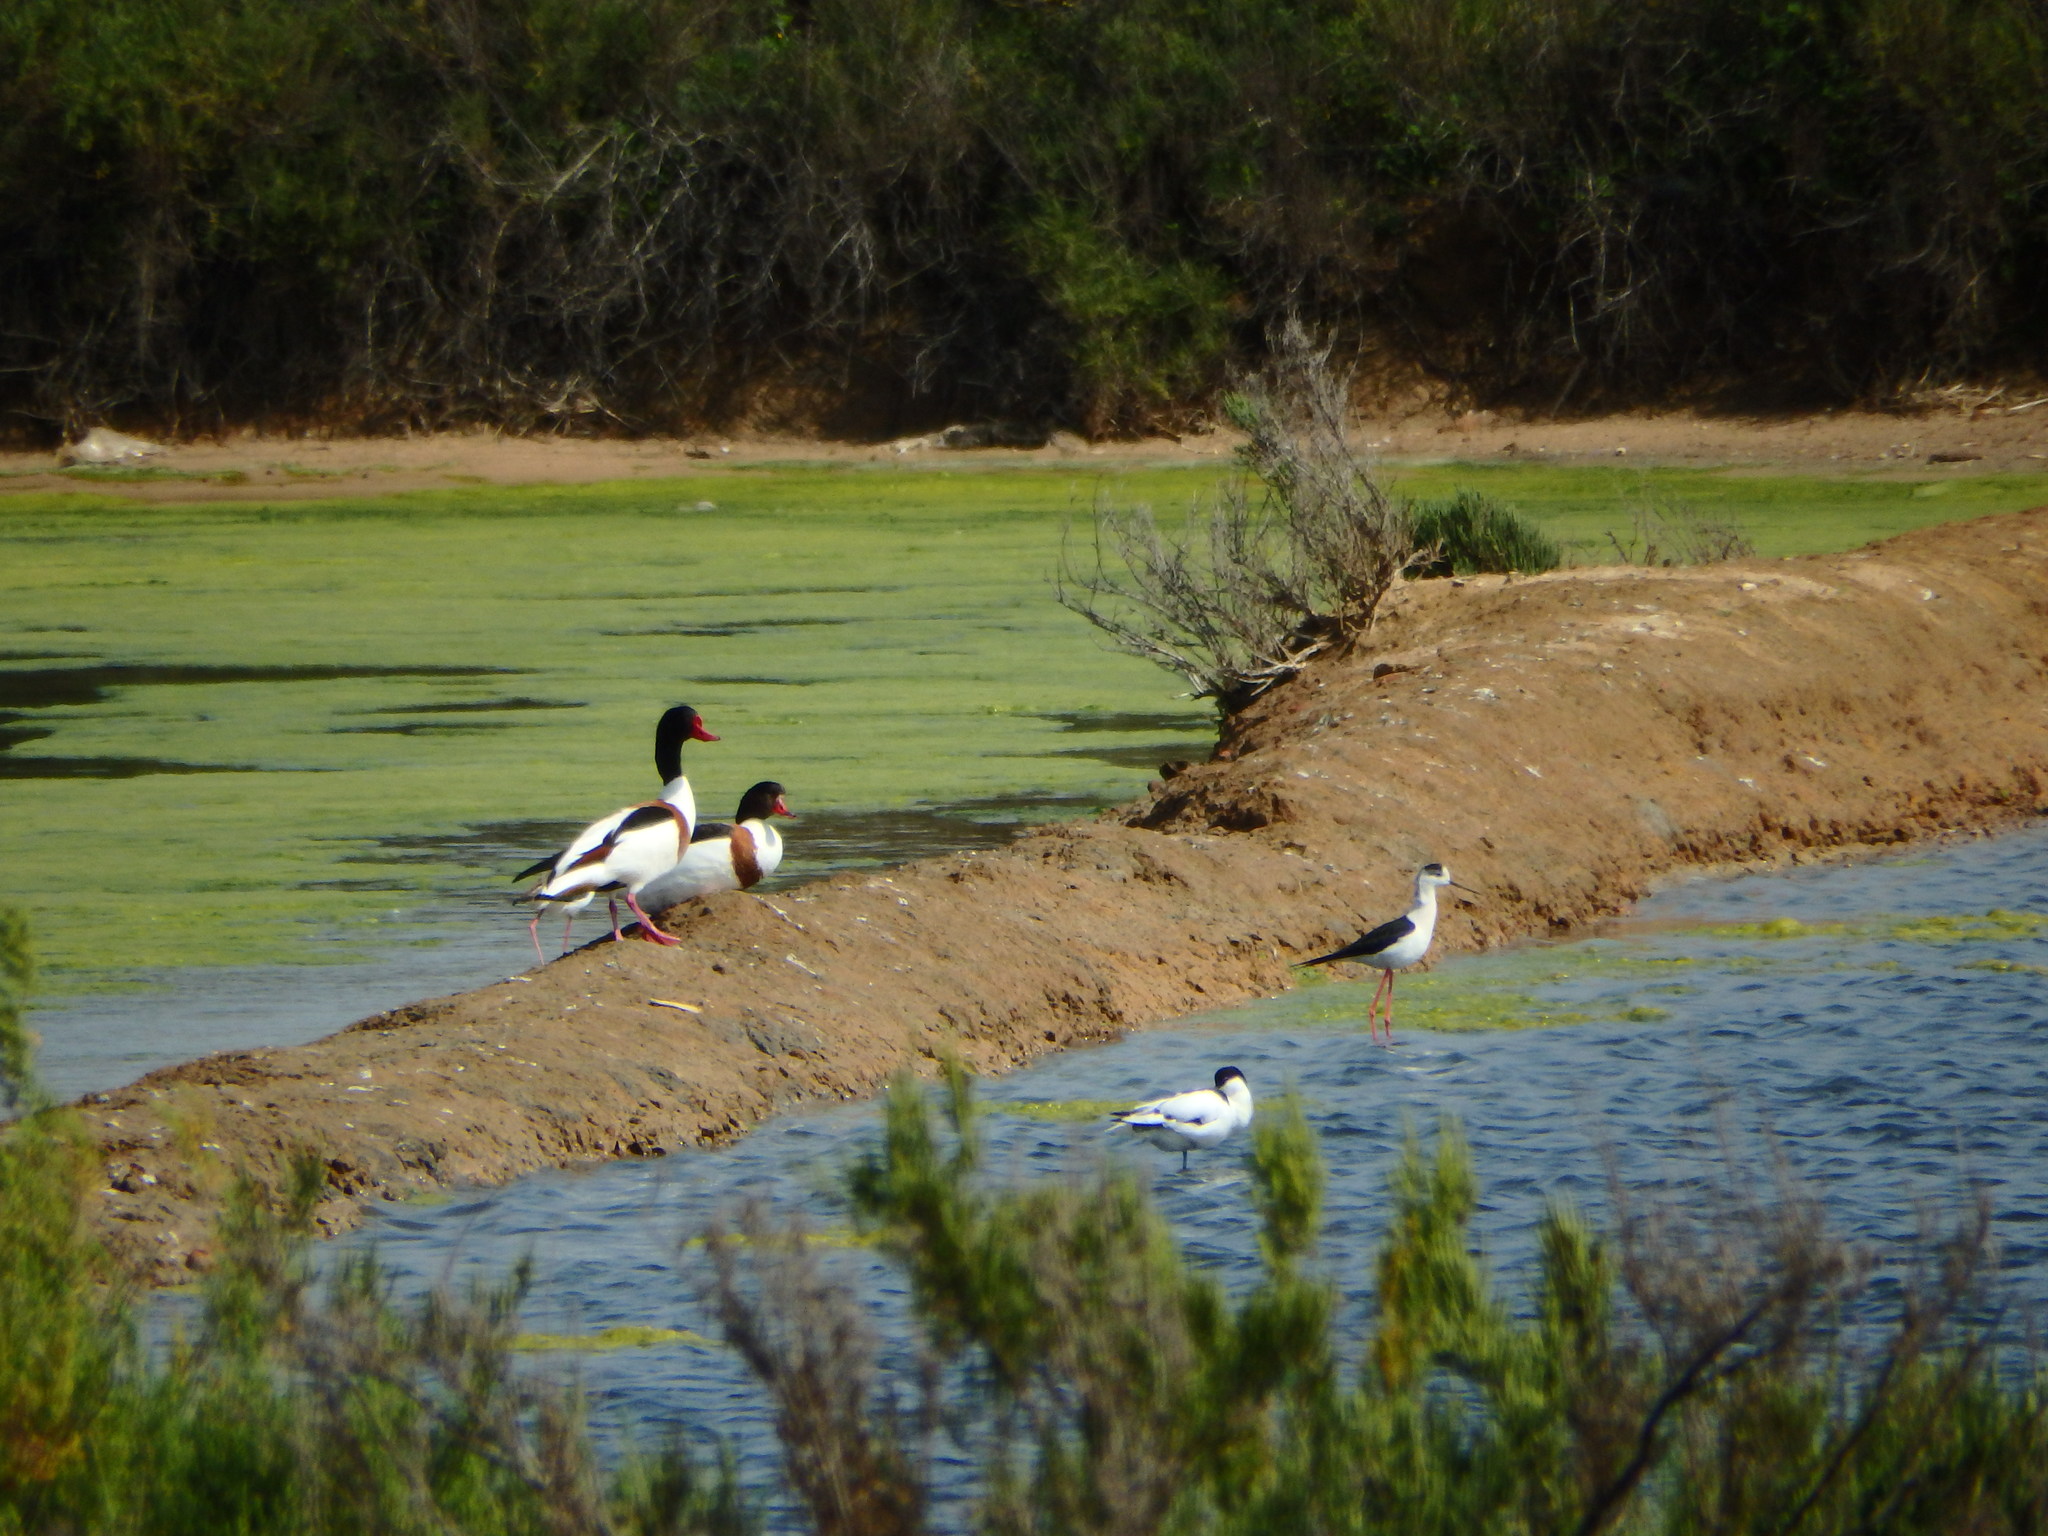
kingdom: Animalia
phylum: Chordata
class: Aves
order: Anseriformes
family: Anatidae
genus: Tadorna
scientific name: Tadorna tadorna
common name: Common shelduck
